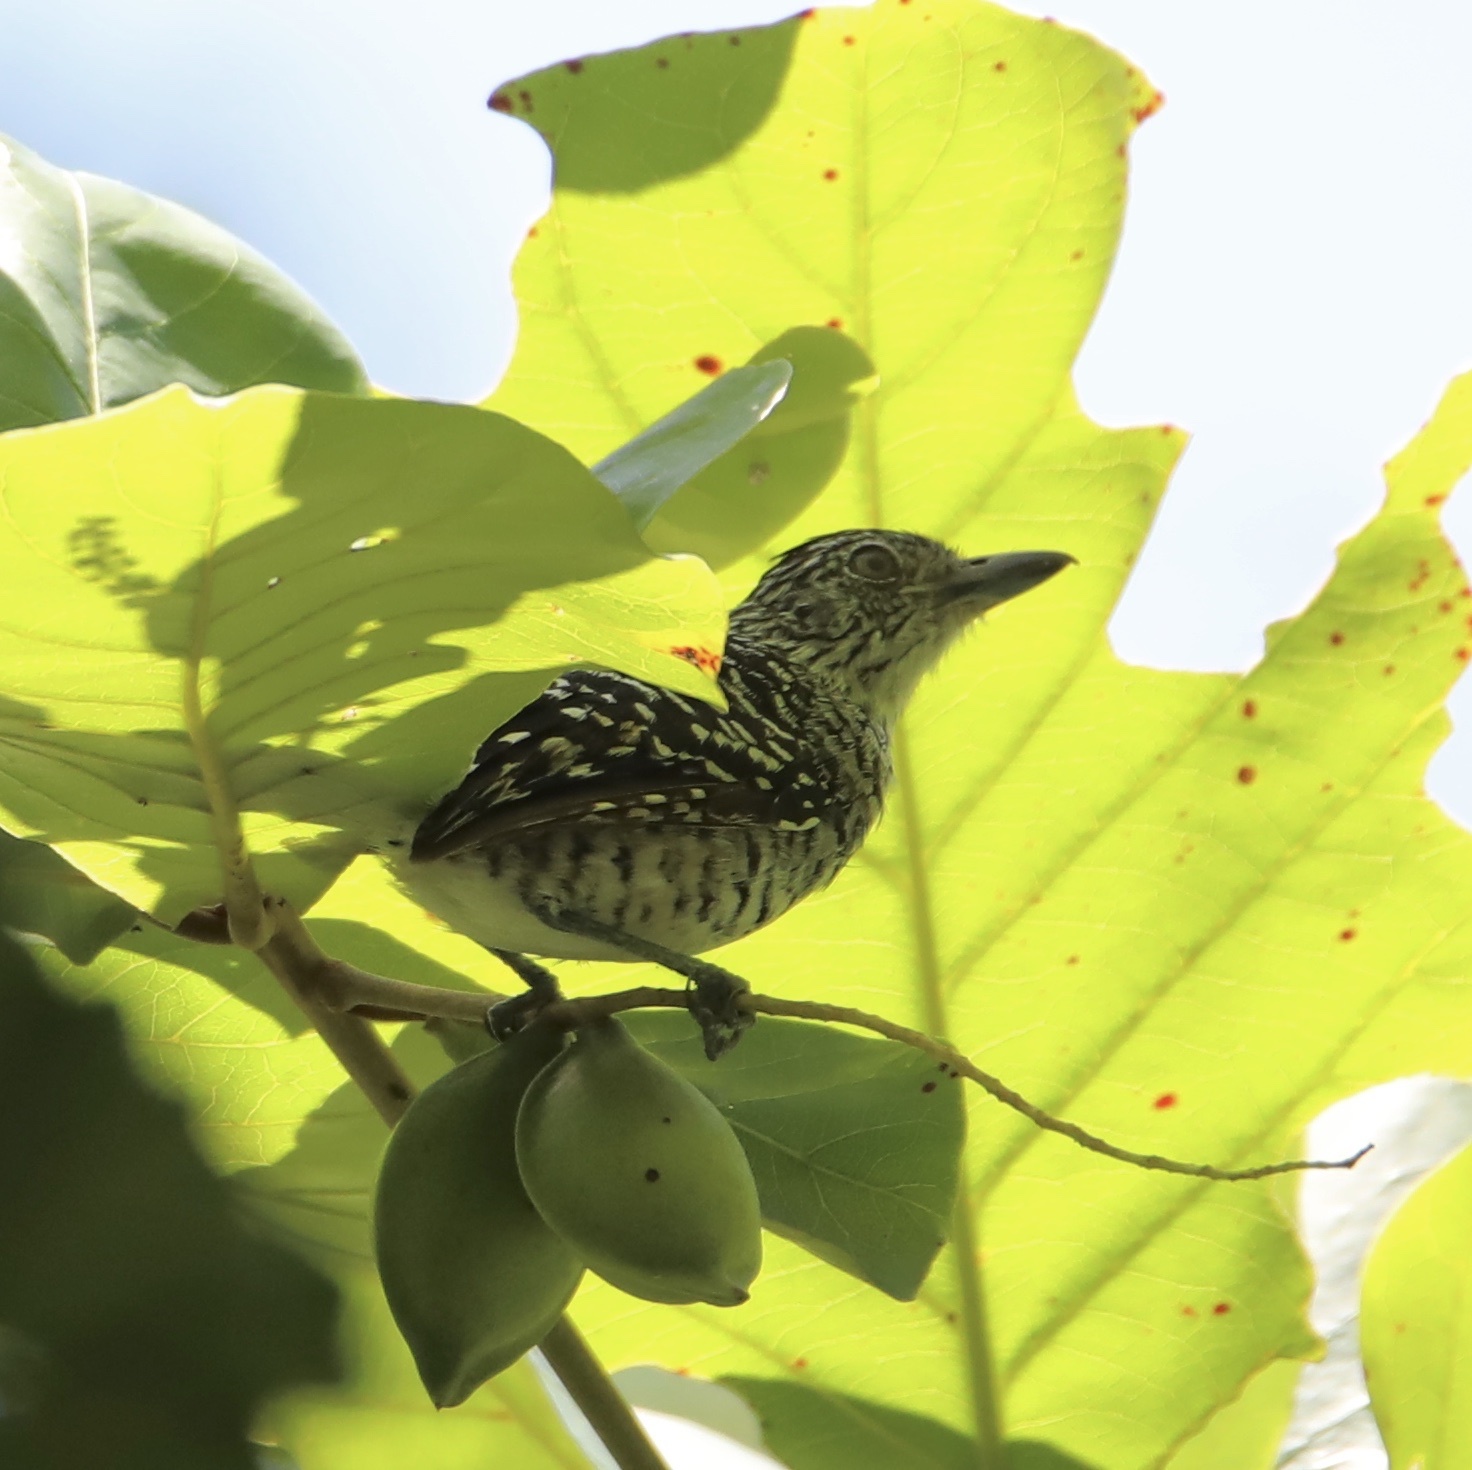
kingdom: Animalia
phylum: Chordata
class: Aves
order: Passeriformes
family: Thamnophilidae
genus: Thamnophilus
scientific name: Thamnophilus doliatus
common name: Barred antshrike
